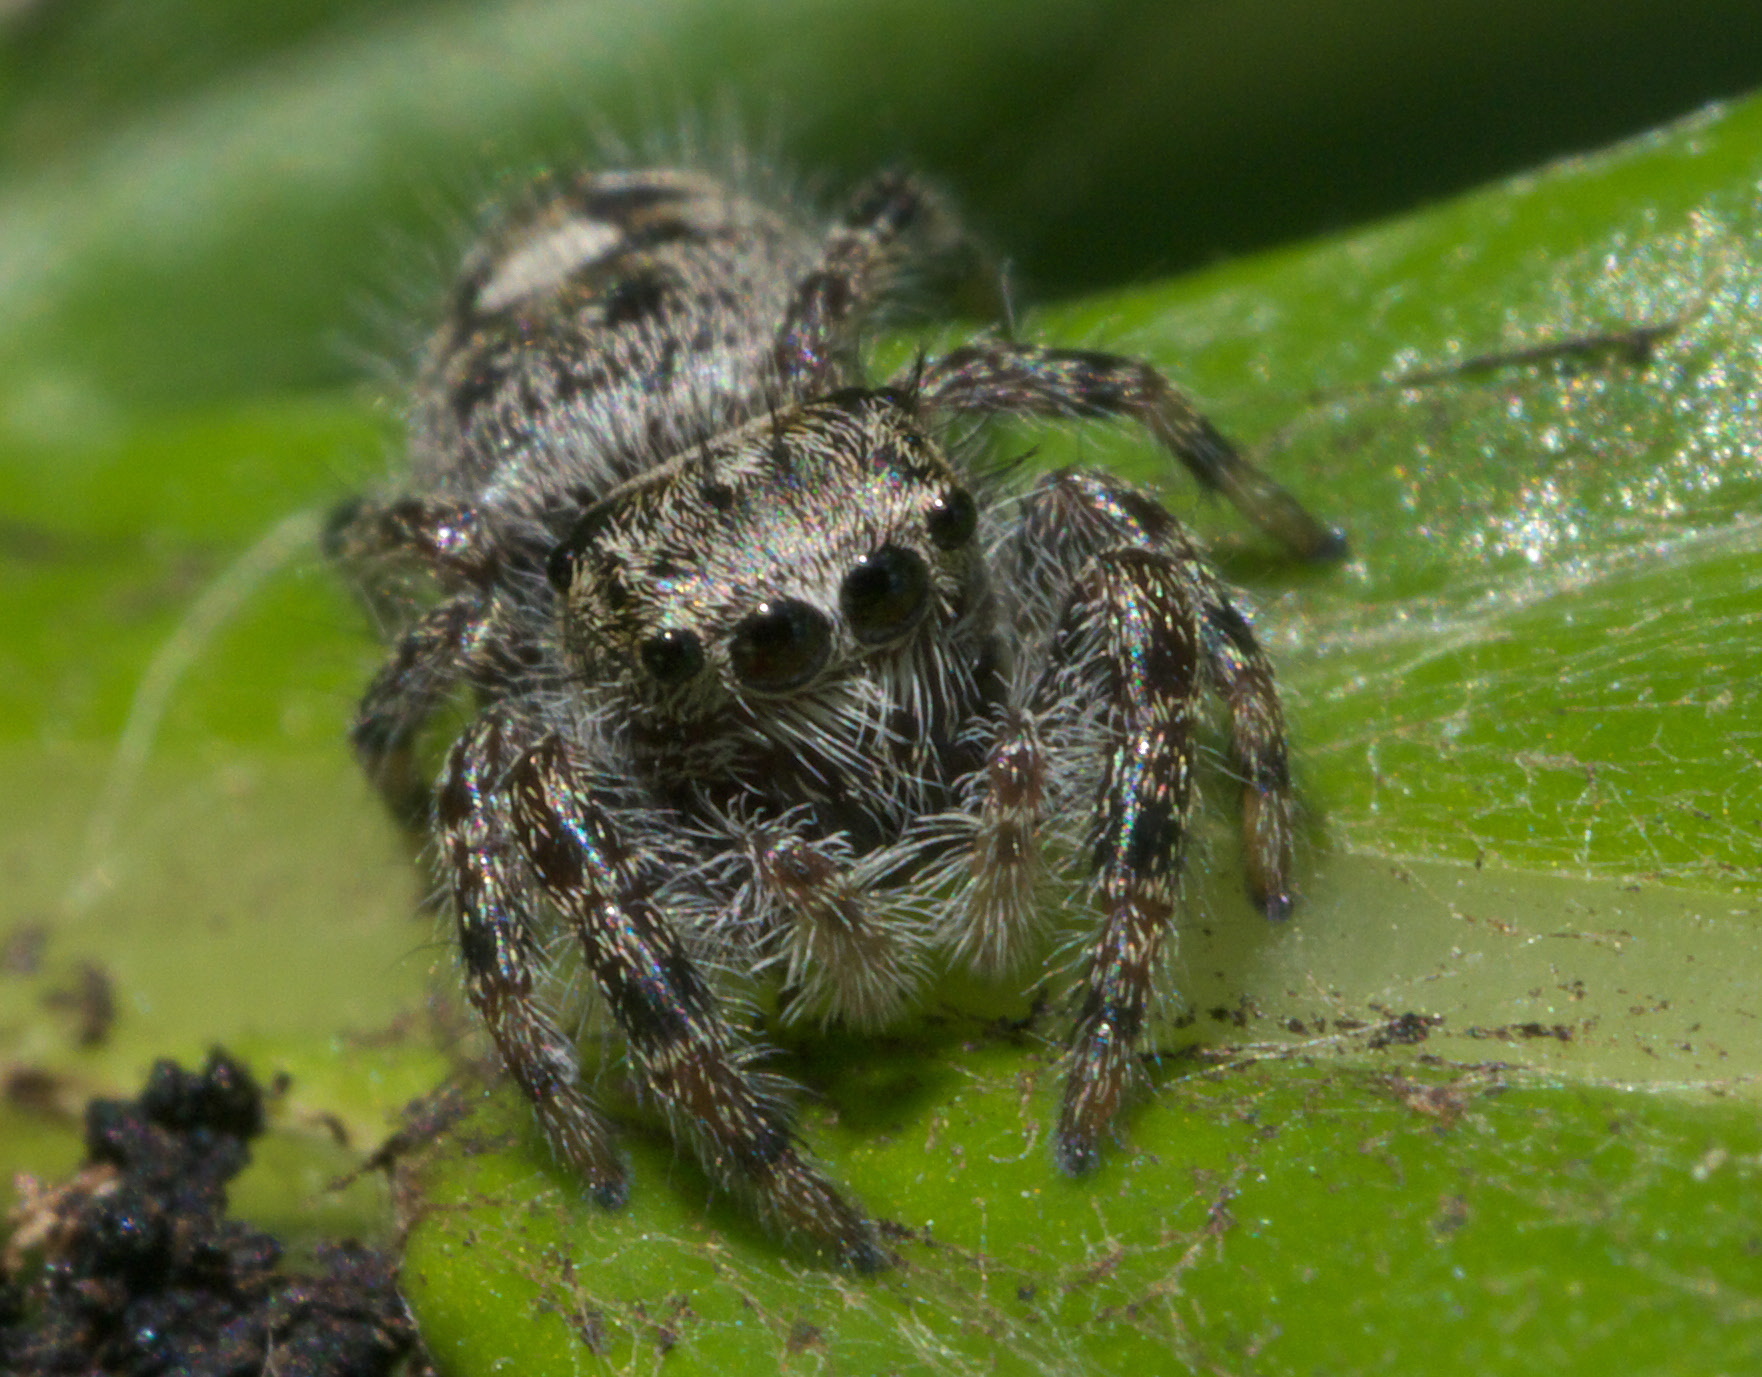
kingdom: Animalia
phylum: Arthropoda
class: Arachnida
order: Araneae
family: Salticidae
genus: Phidippus
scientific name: Phidippus putnami
